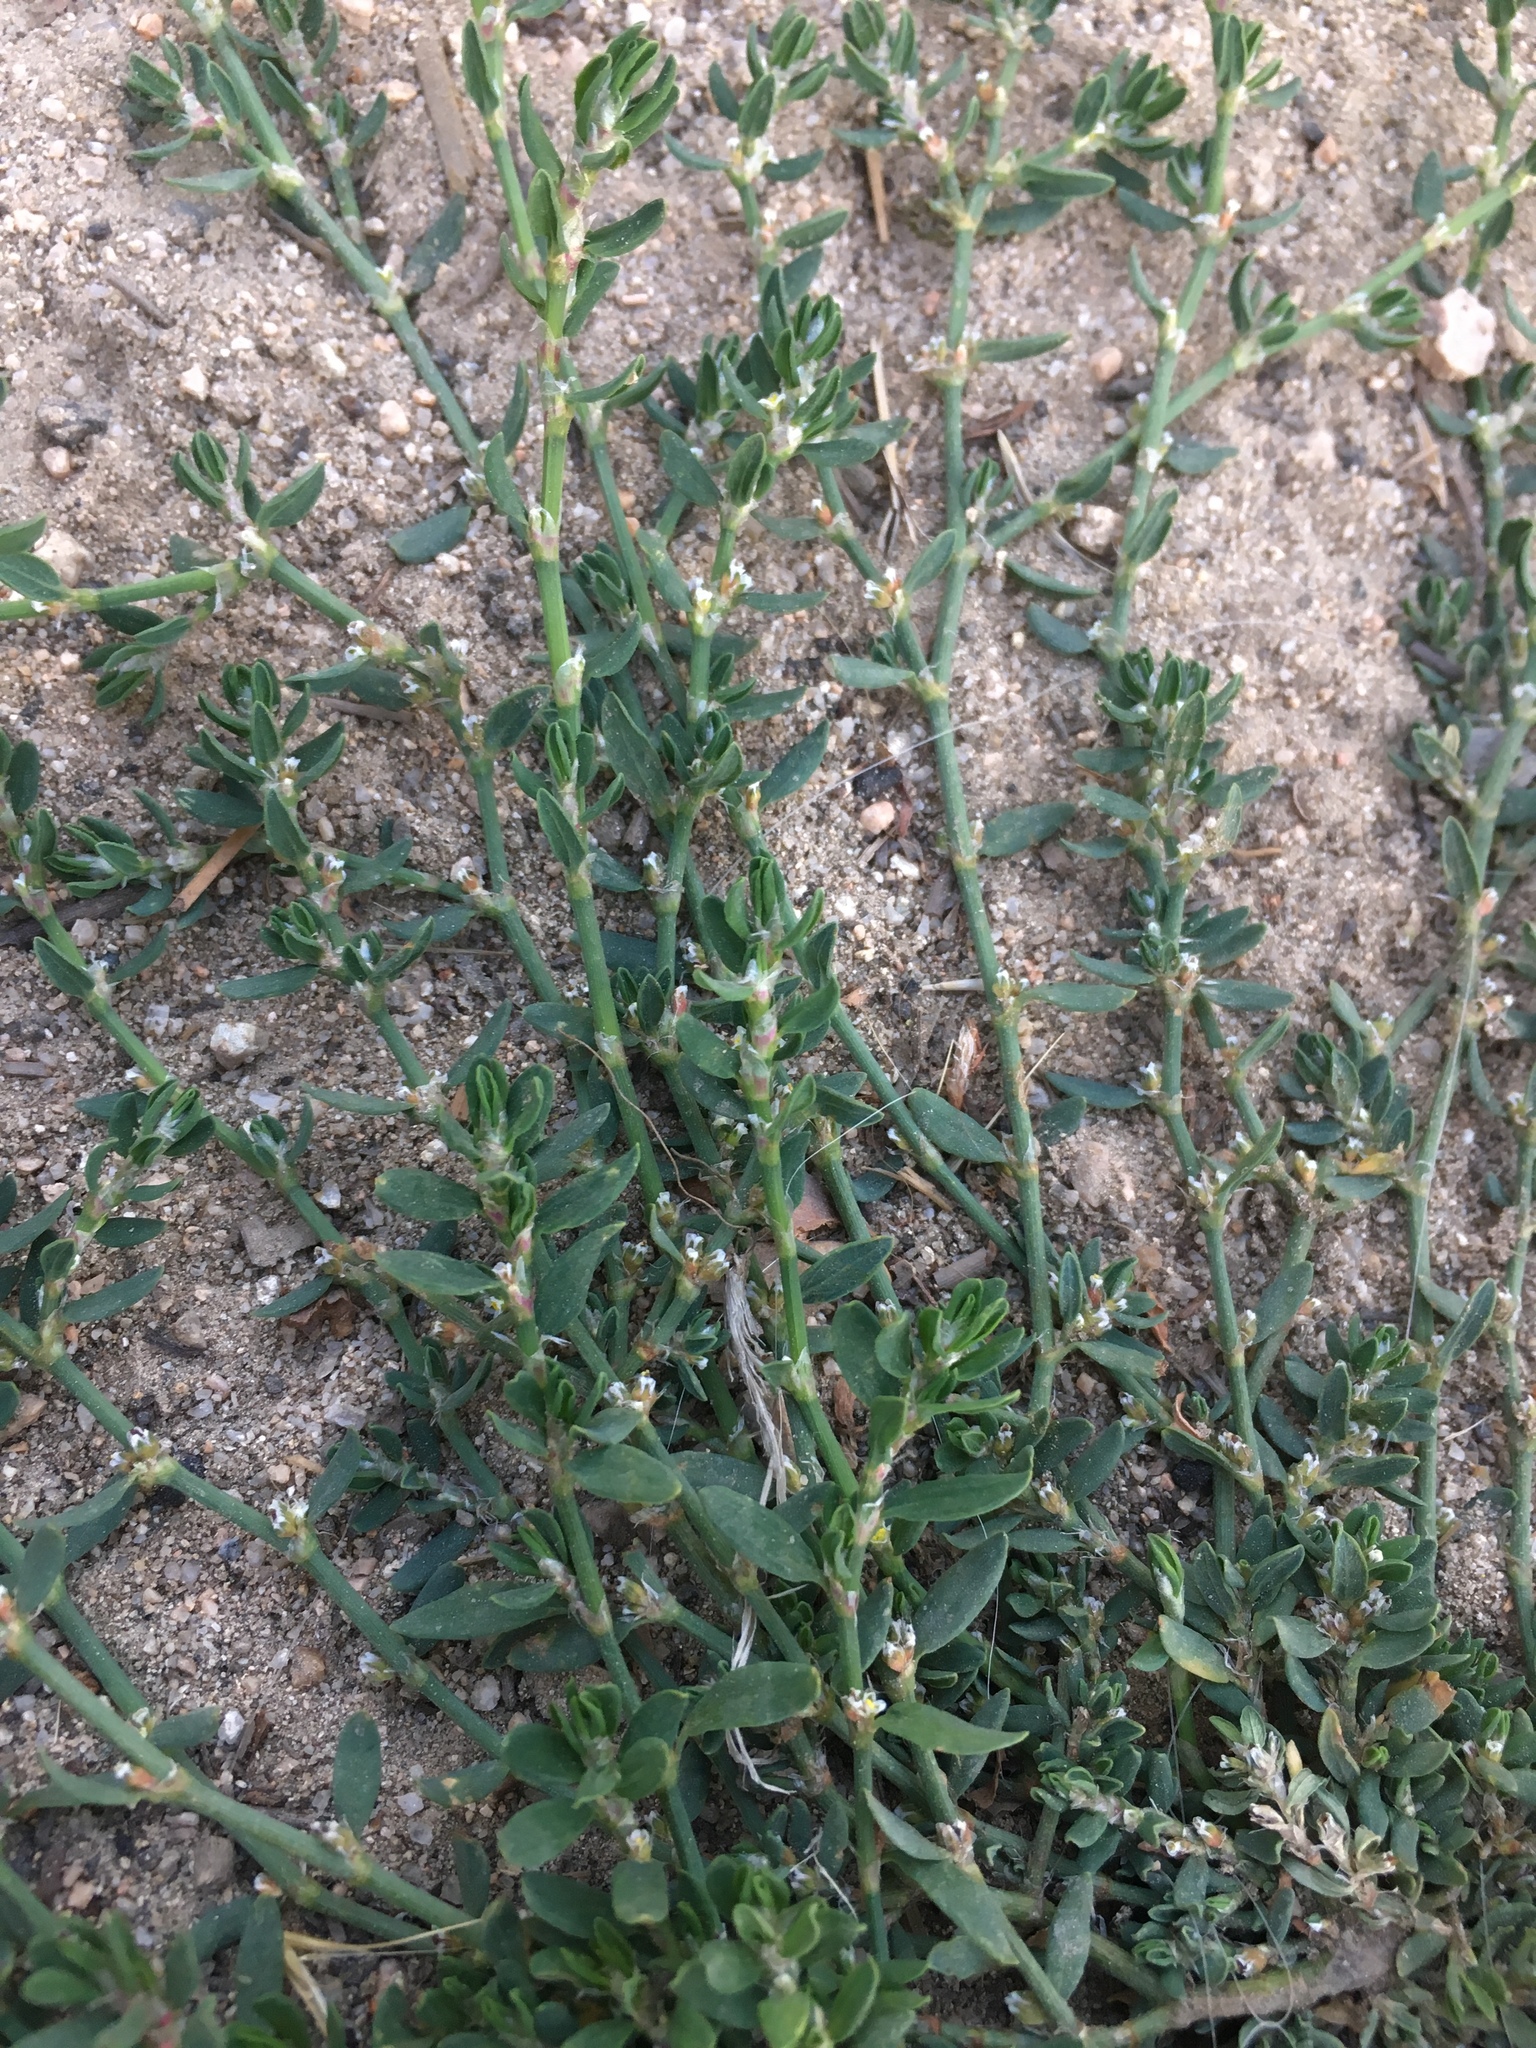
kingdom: Plantae
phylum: Tracheophyta
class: Magnoliopsida
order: Caryophyllales
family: Polygonaceae
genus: Polygonum
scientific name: Polygonum aviculare
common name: Prostrate knotweed
